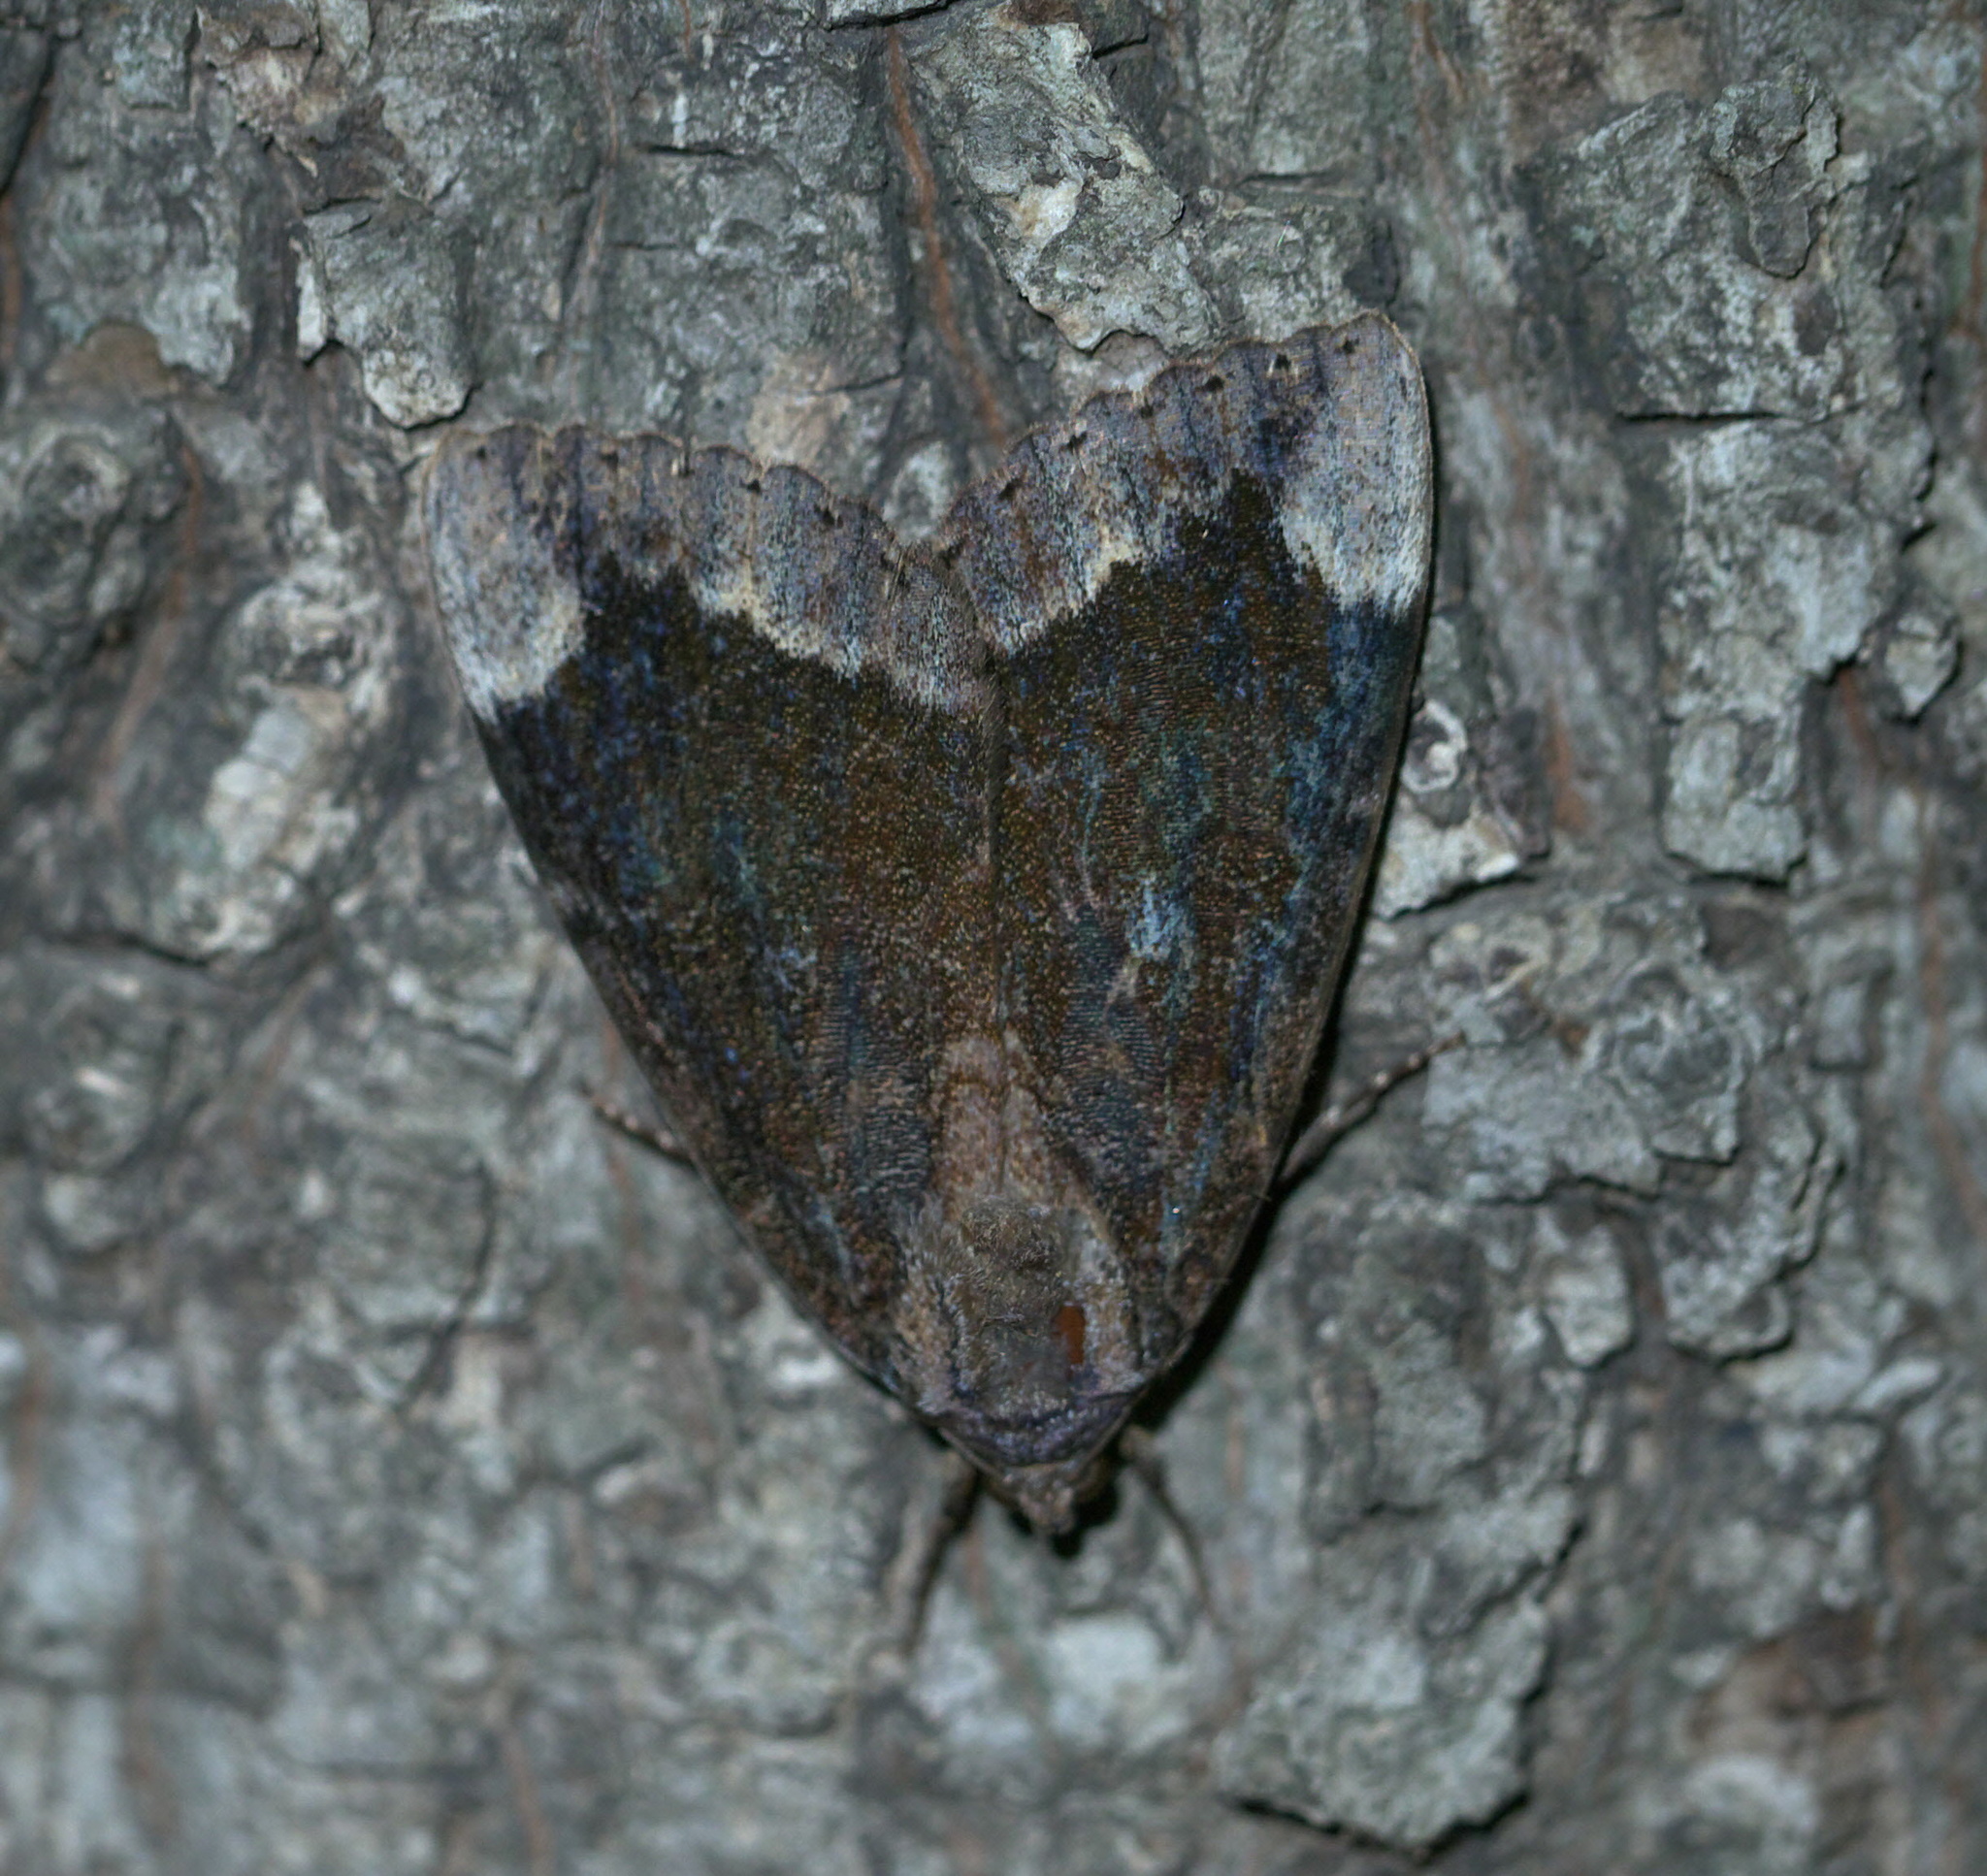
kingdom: Animalia
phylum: Arthropoda
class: Insecta
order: Lepidoptera
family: Erebidae
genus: Catocala
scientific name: Catocala innubens
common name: Betrothed underwing
